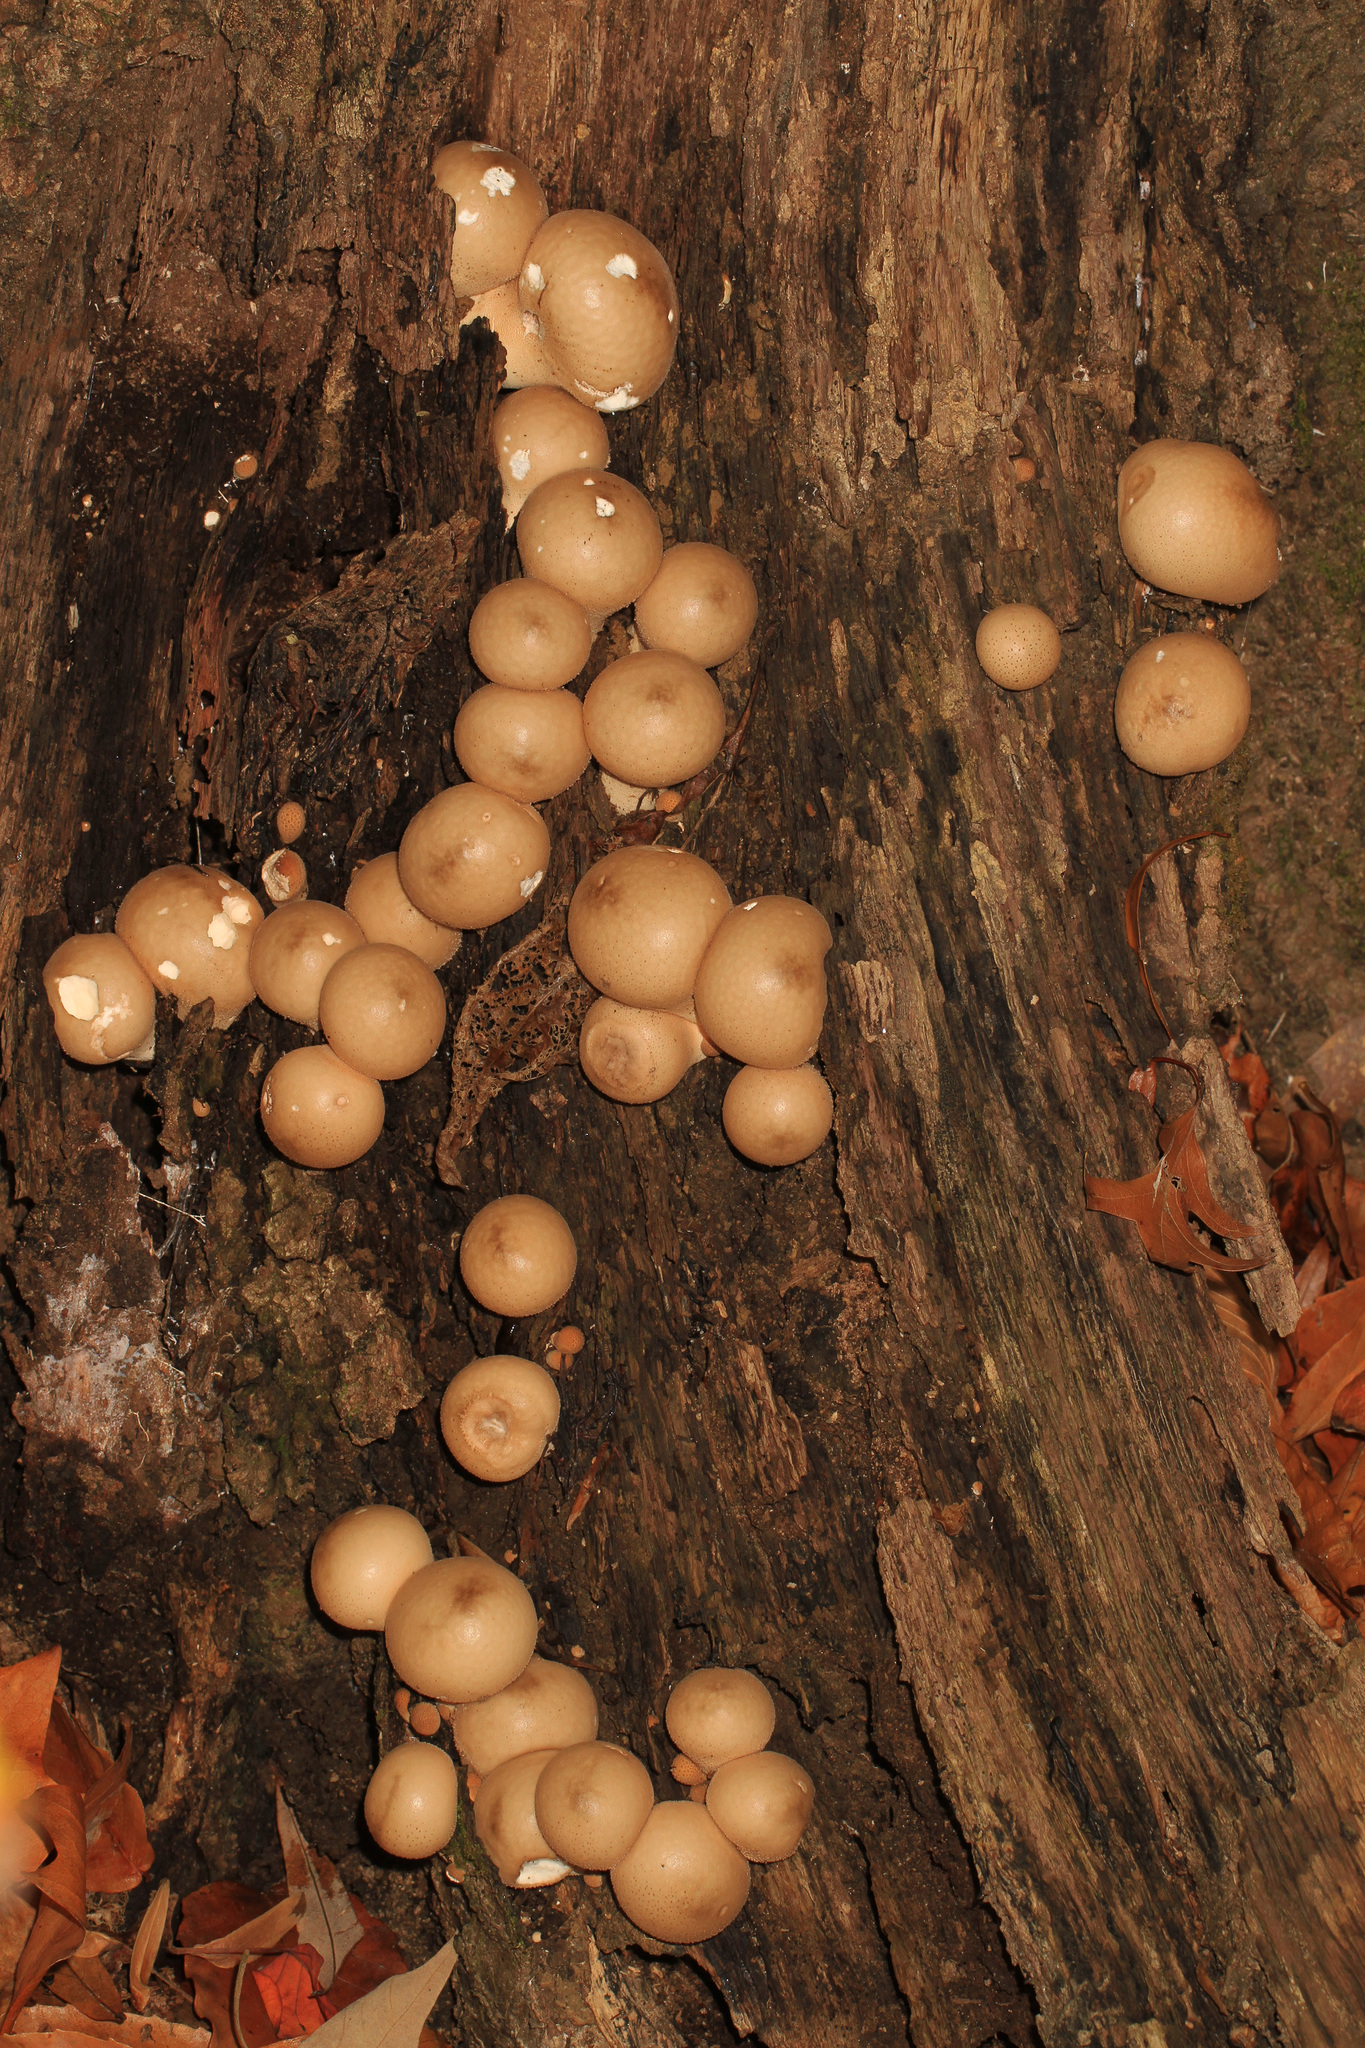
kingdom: Fungi
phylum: Basidiomycota
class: Agaricomycetes
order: Agaricales
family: Lycoperdaceae
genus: Apioperdon
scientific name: Apioperdon pyriforme
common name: Pear-shaped puffball
